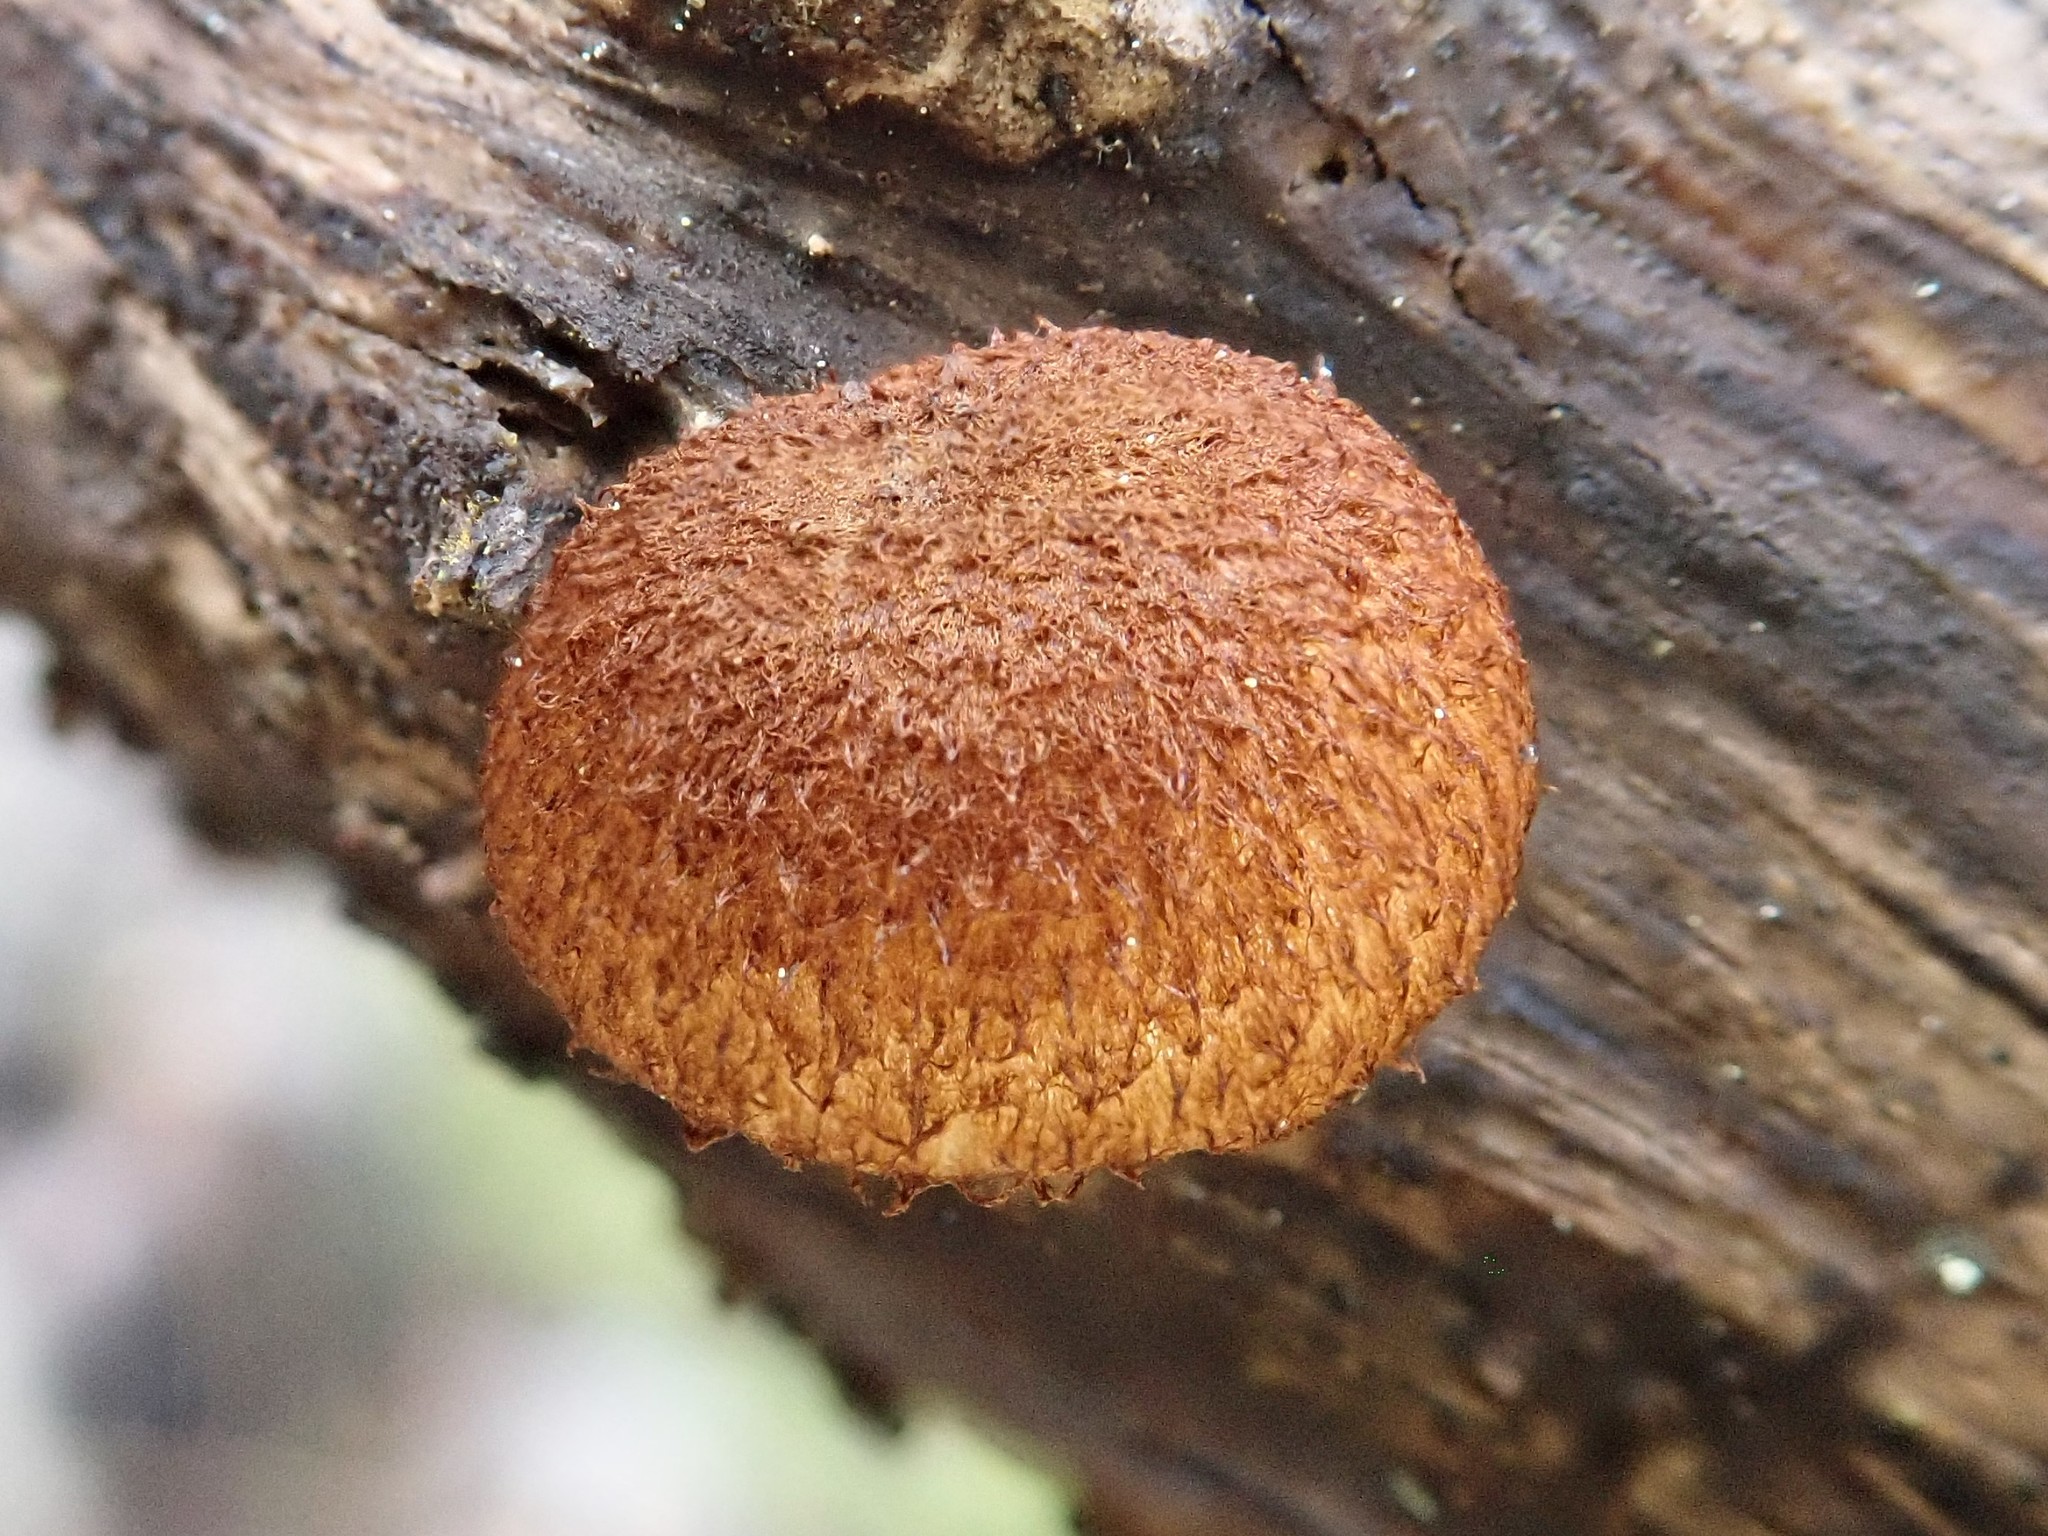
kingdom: Fungi
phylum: Basidiomycota
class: Agaricomycetes
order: Agaricales
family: Tubariaceae
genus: Phaeomarasmius
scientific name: Phaeomarasmius erinaceus
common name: Hedgehog scalycap
